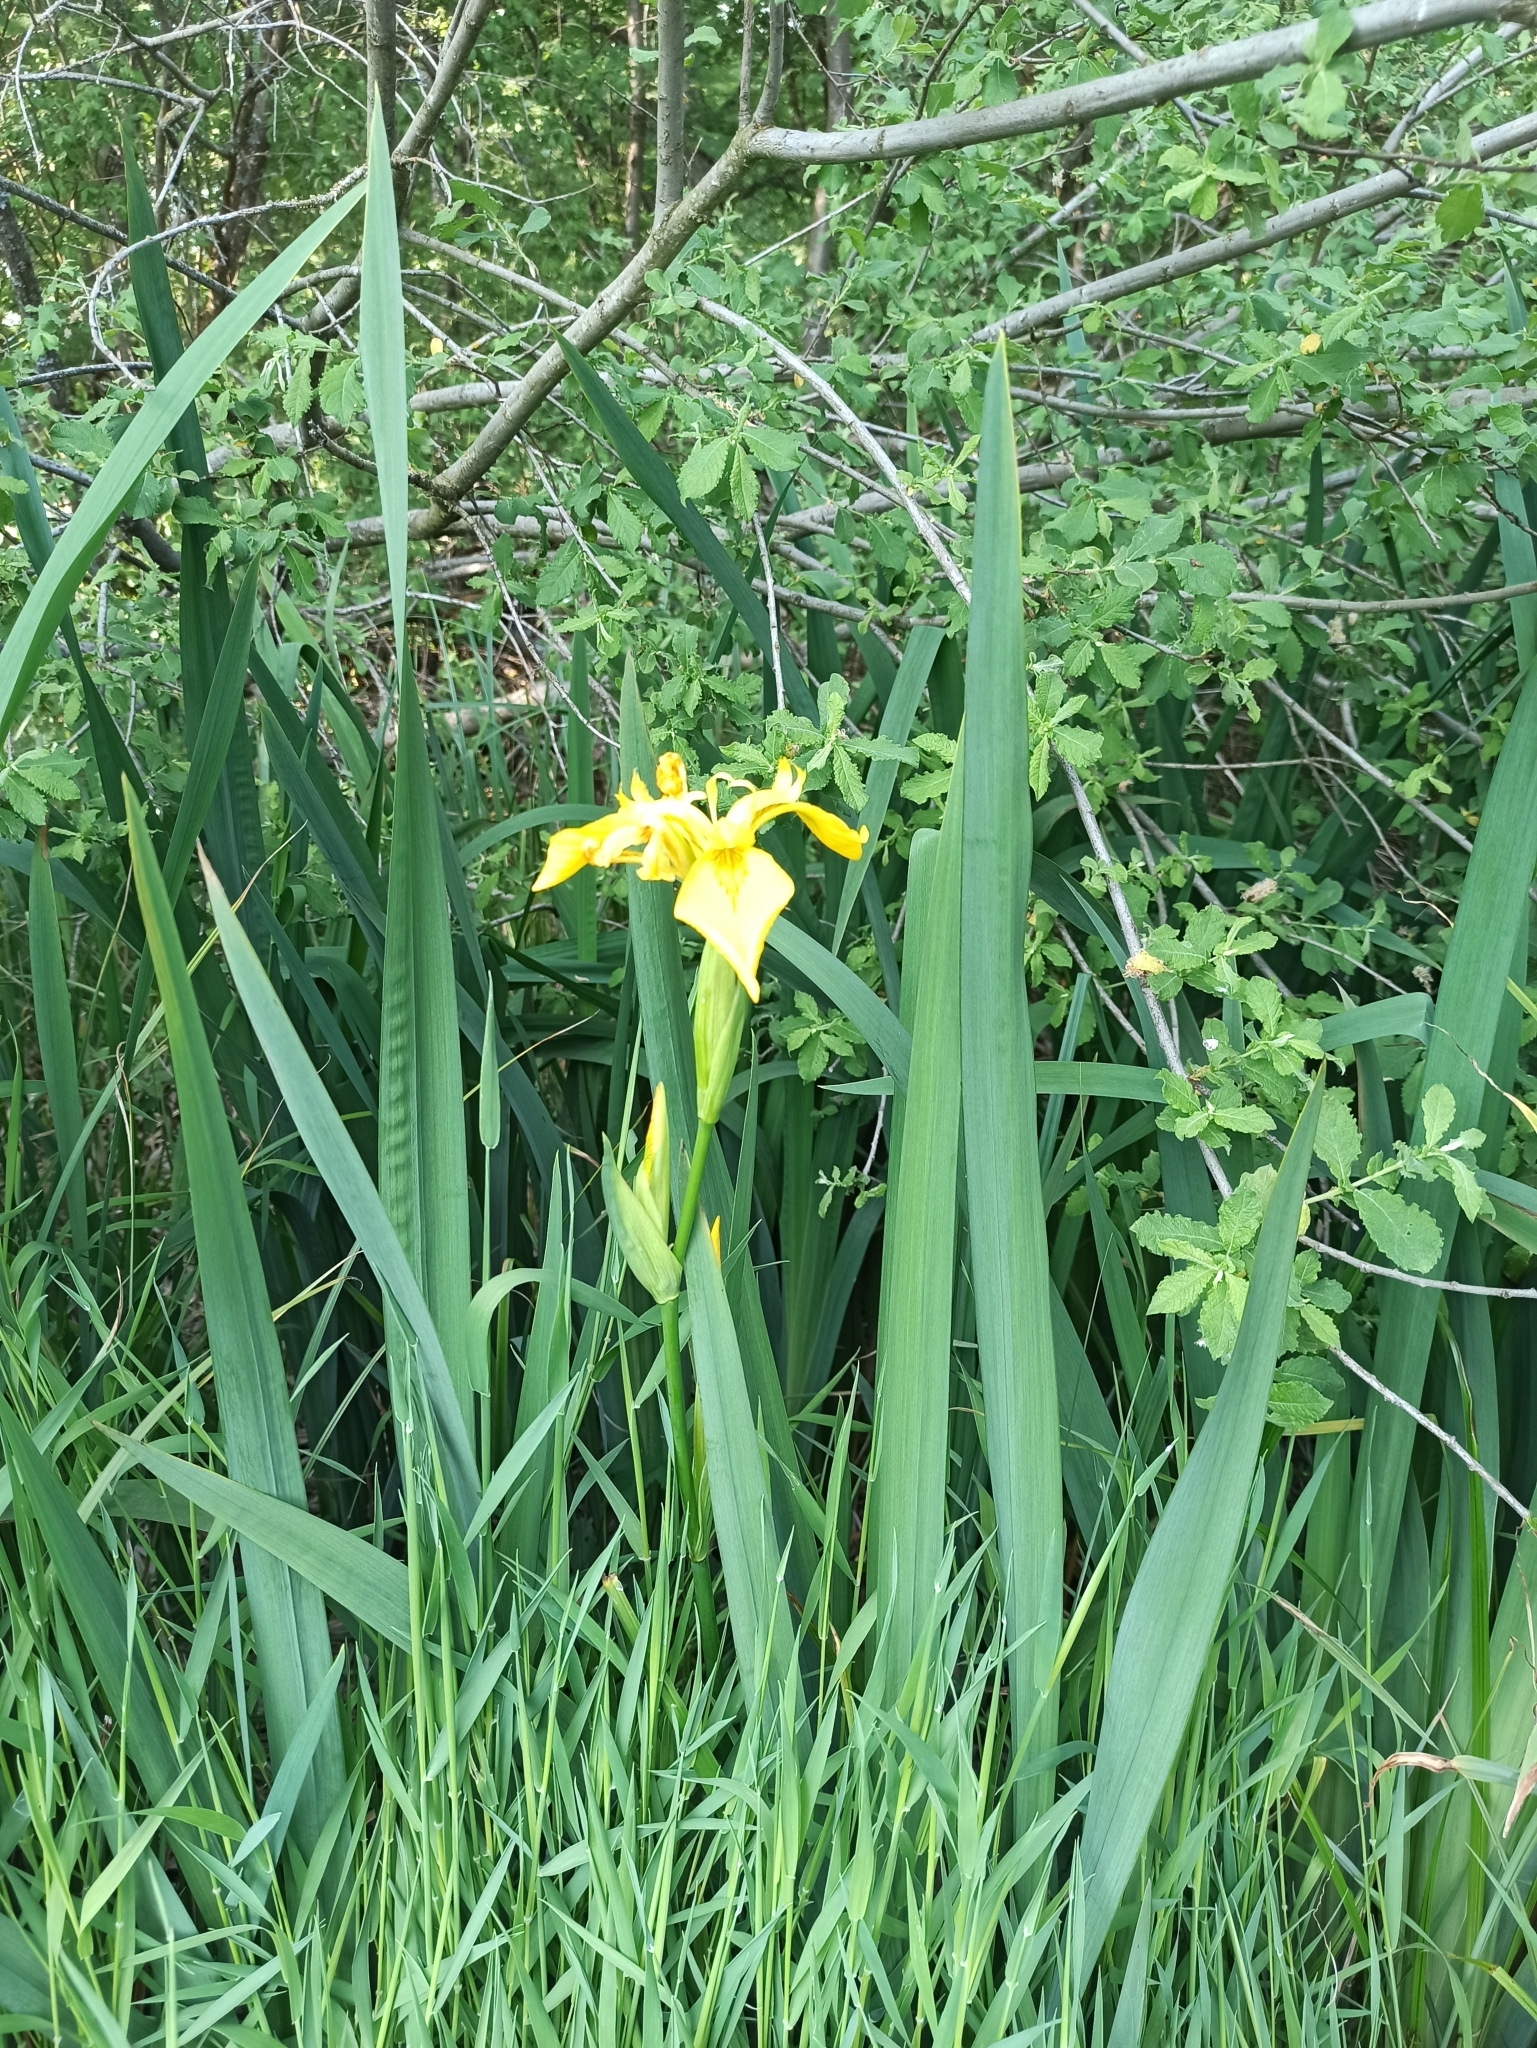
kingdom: Plantae
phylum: Tracheophyta
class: Liliopsida
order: Asparagales
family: Iridaceae
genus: Iris
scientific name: Iris pseudacorus
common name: Yellow flag
